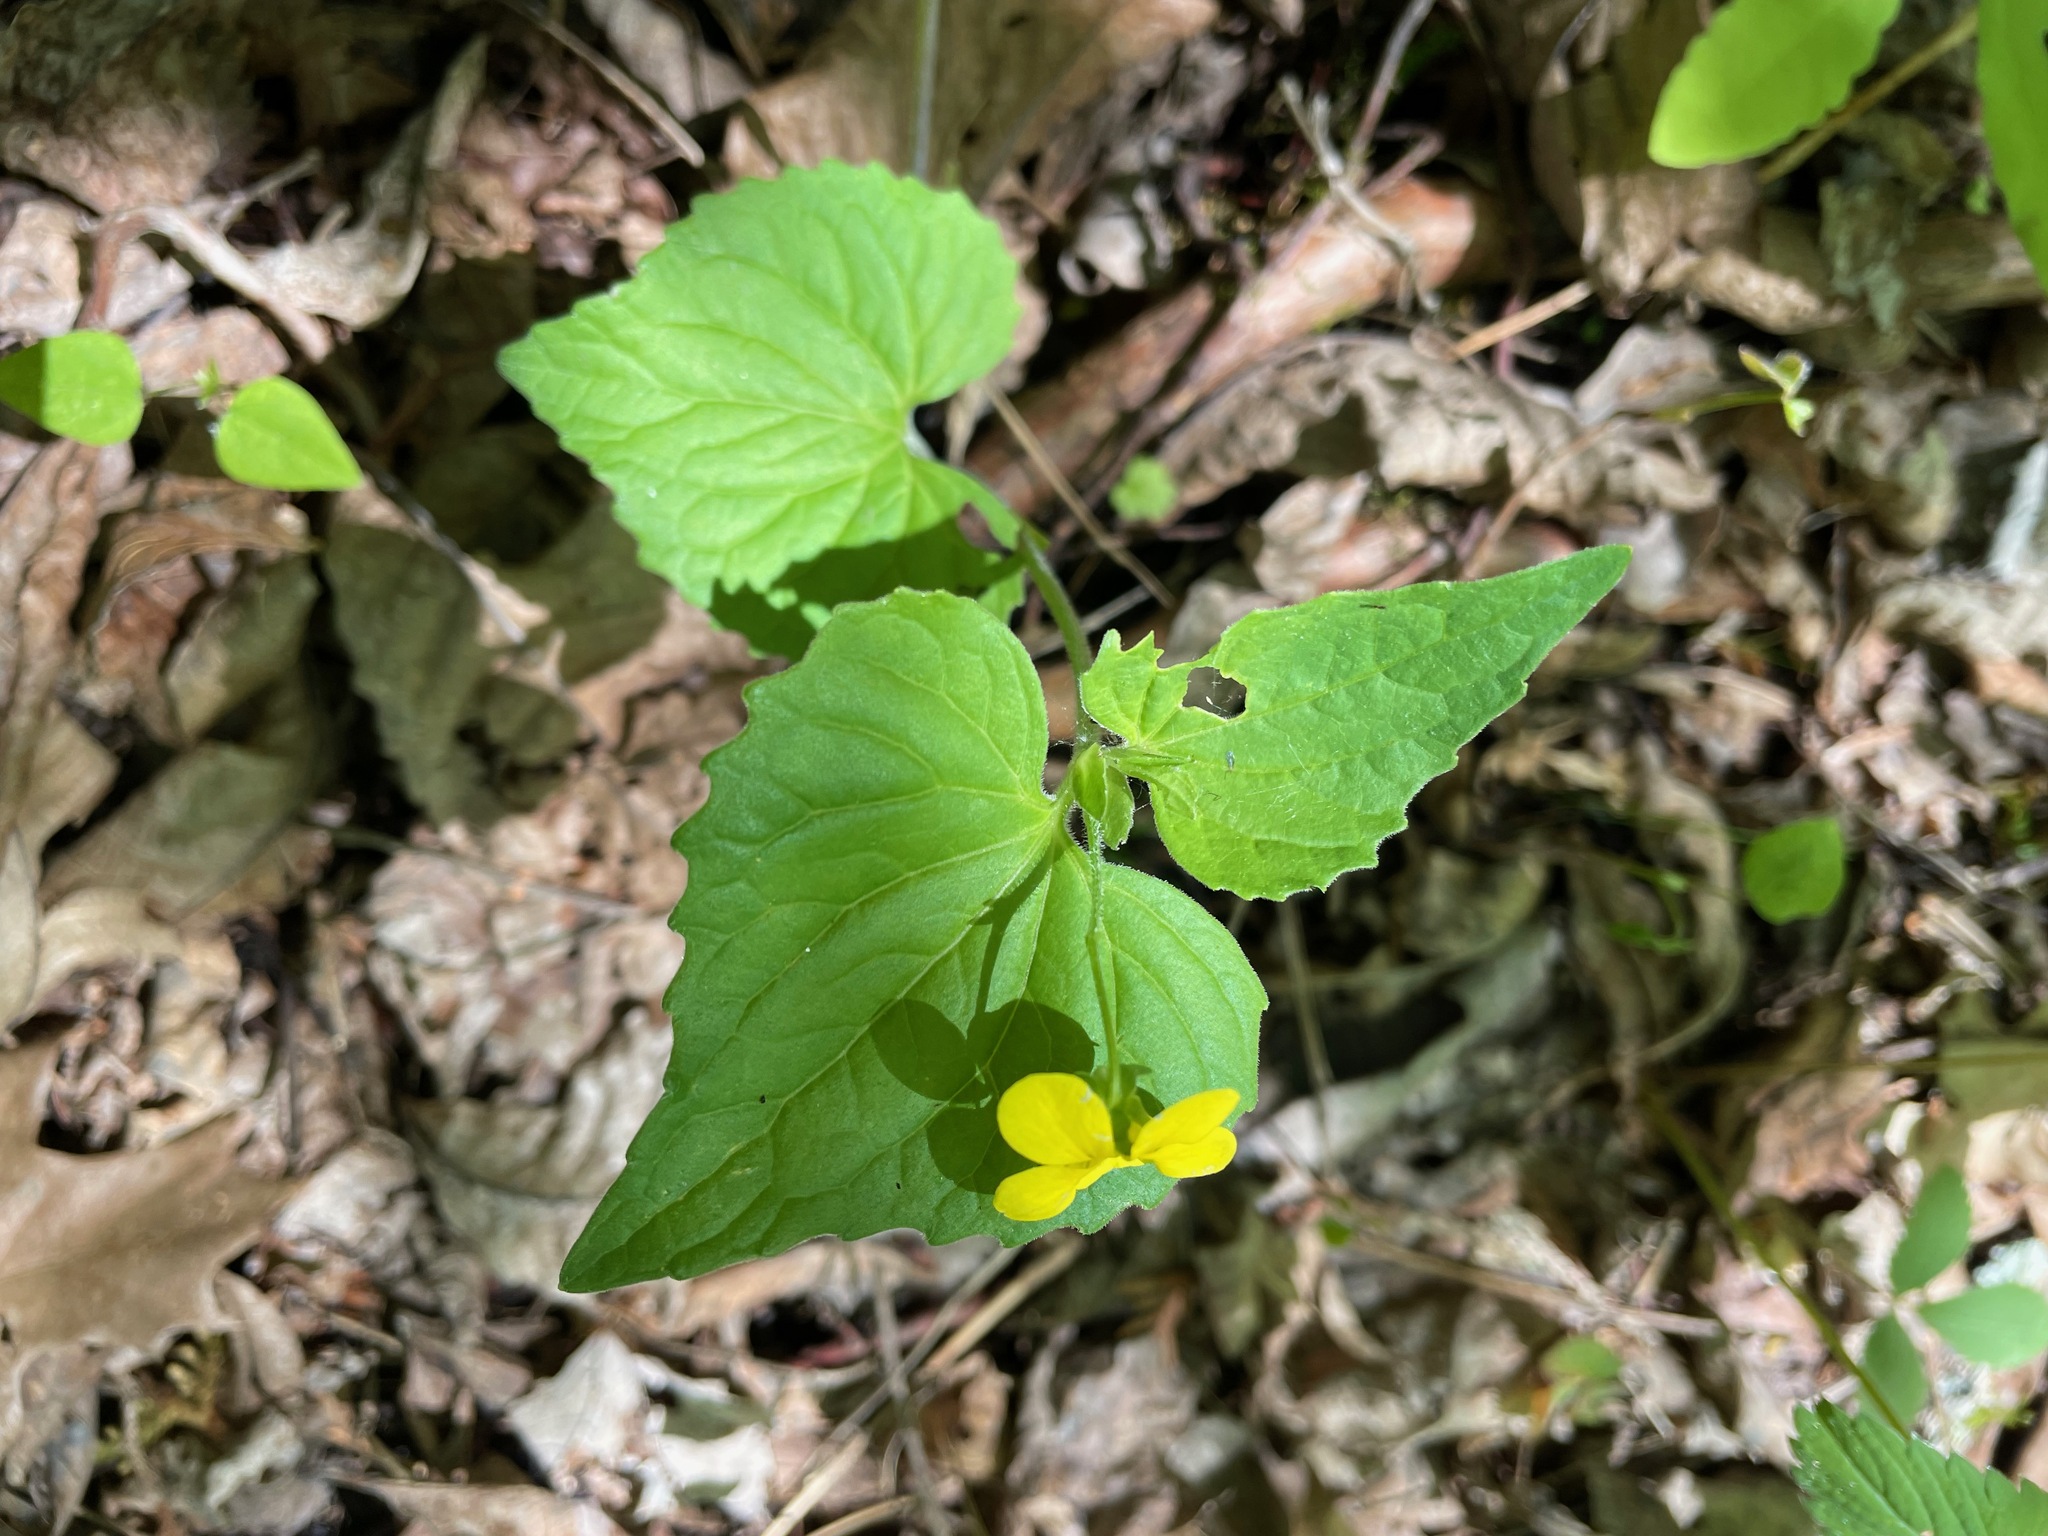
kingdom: Plantae
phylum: Tracheophyta
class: Magnoliopsida
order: Malpighiales
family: Violaceae
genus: Viola
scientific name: Viola eriocarpa
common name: Smooth yellow violet
